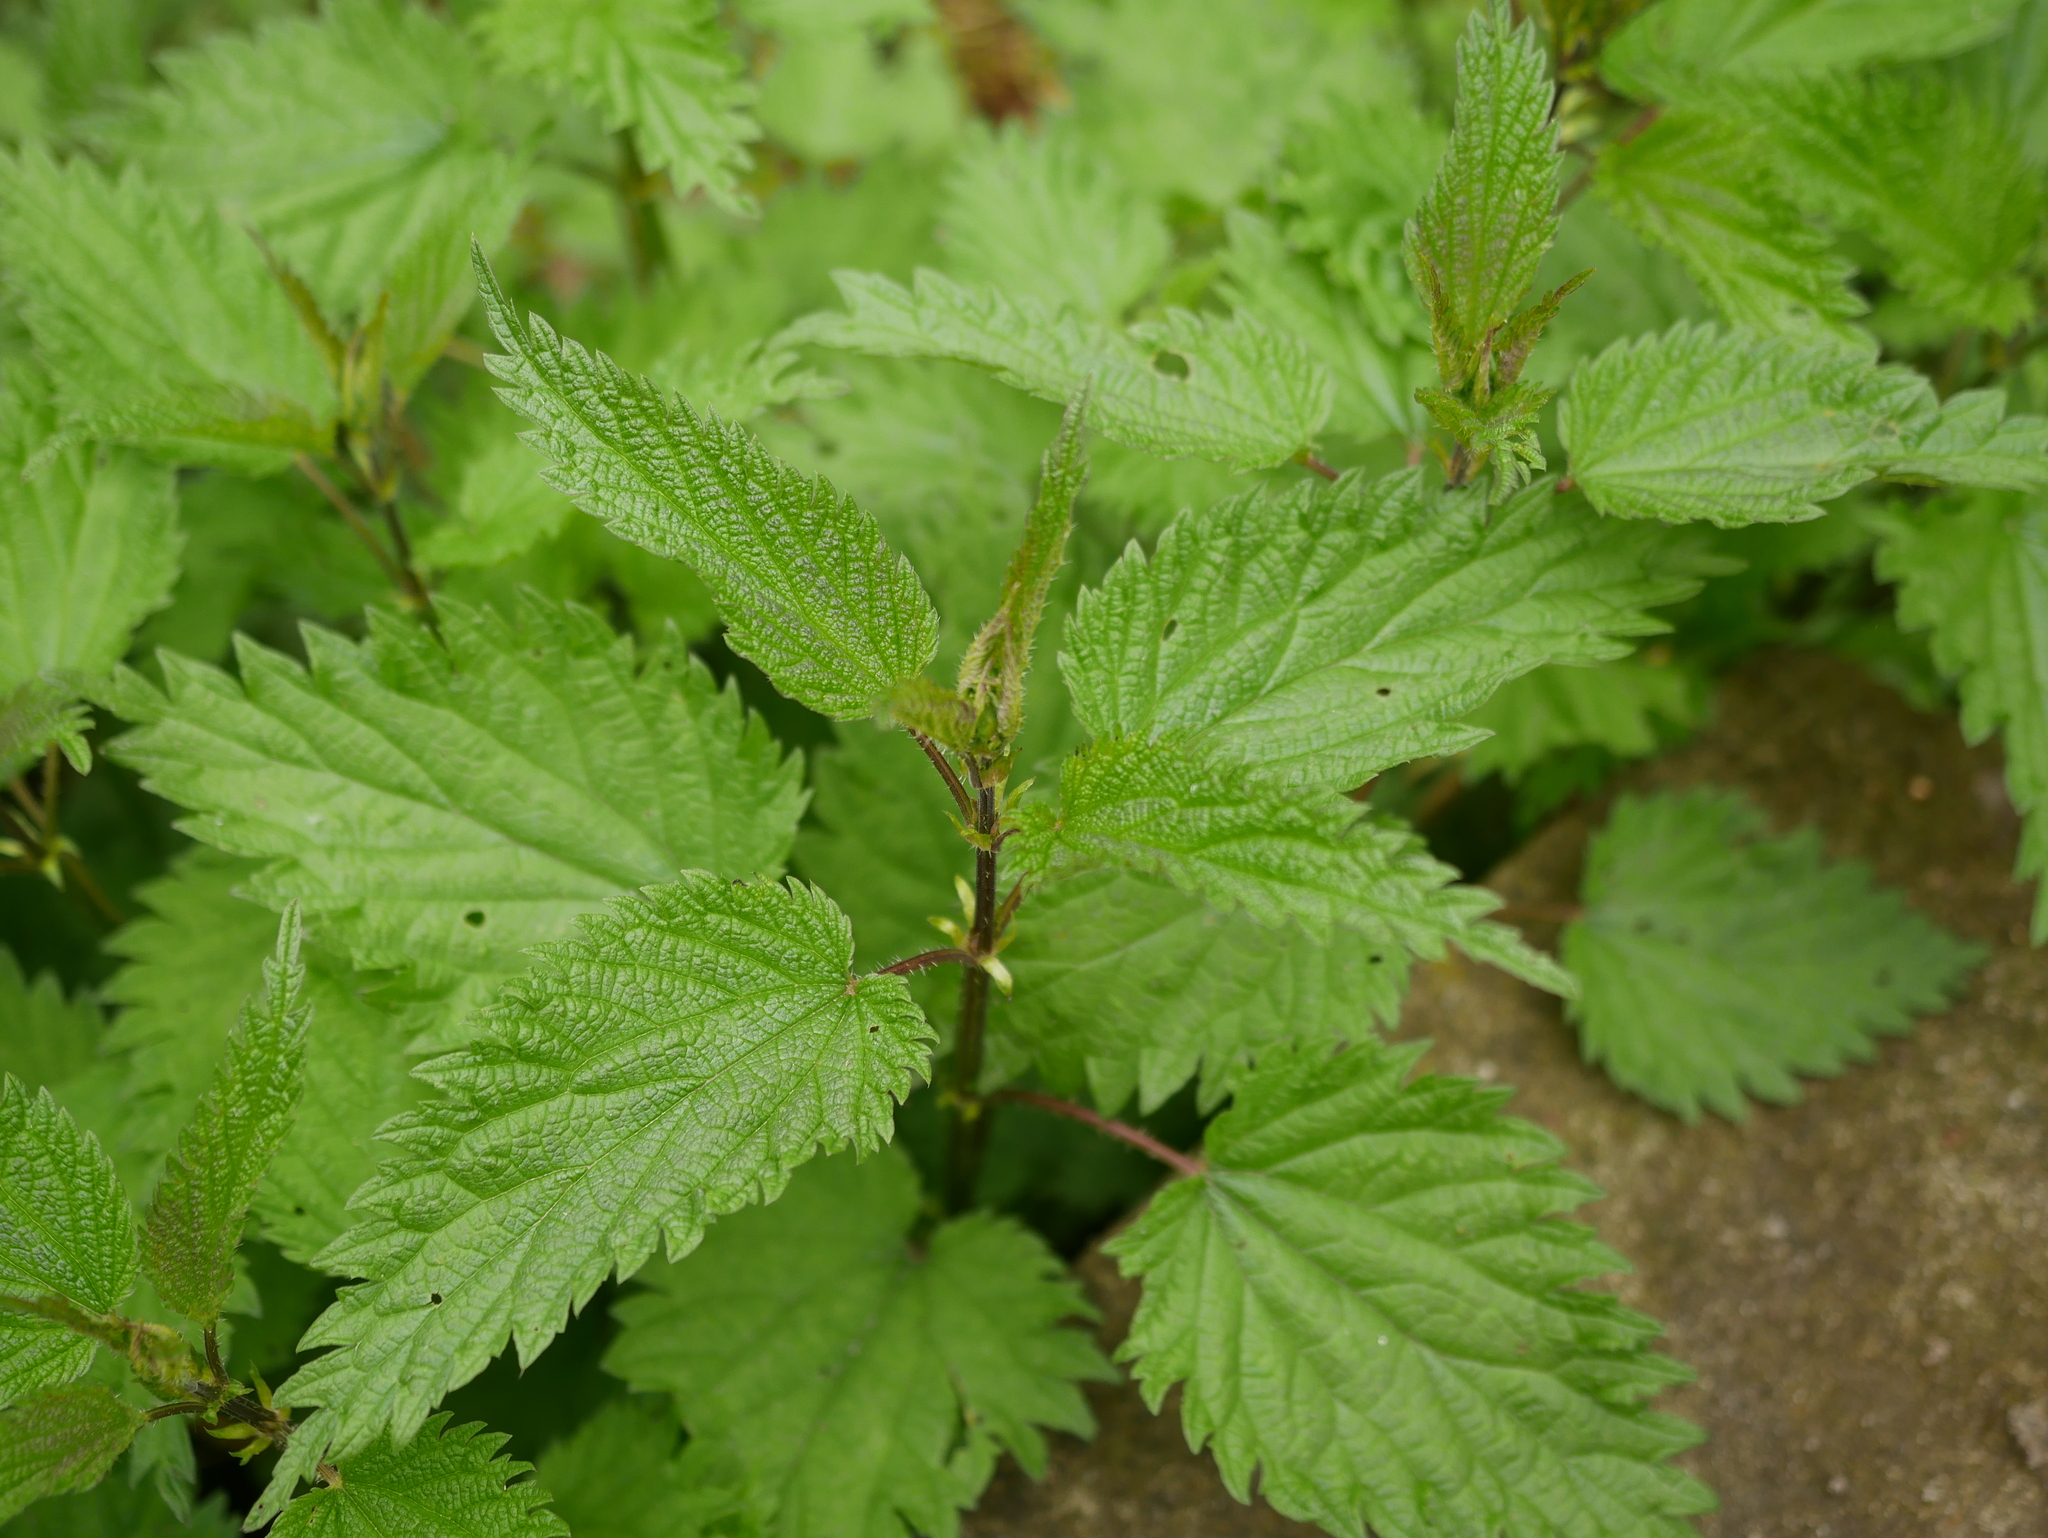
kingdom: Plantae
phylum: Tracheophyta
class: Magnoliopsida
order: Rosales
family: Urticaceae
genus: Urtica
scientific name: Urtica dioica
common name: Common nettle
